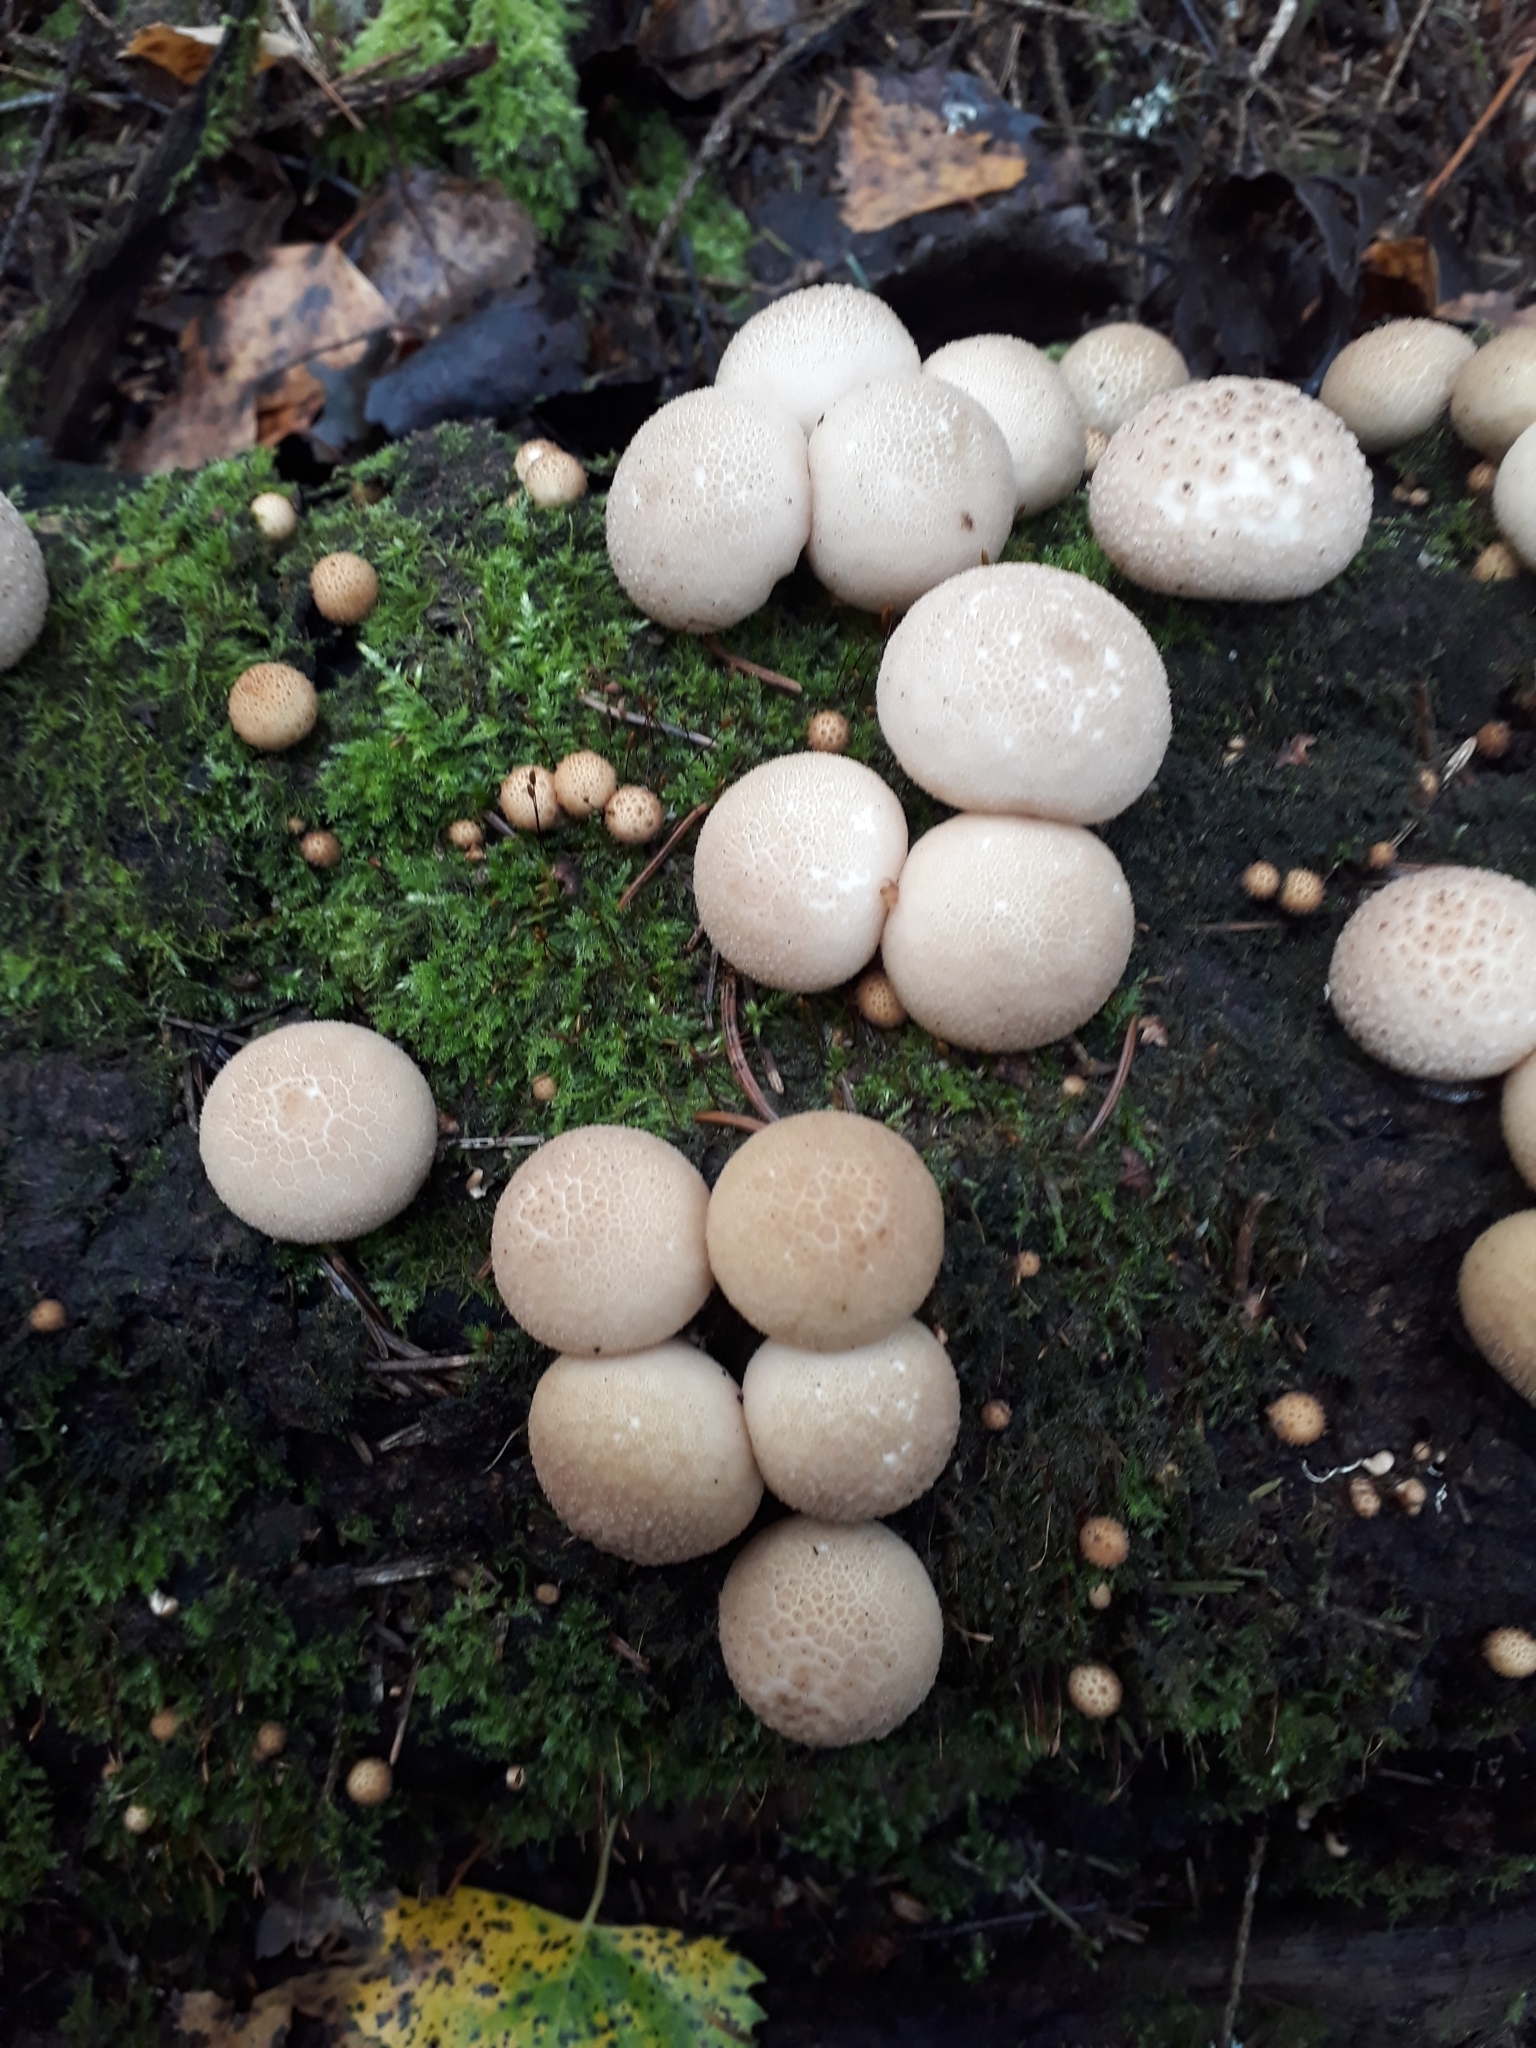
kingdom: Fungi
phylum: Basidiomycota
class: Agaricomycetes
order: Agaricales
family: Lycoperdaceae
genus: Apioperdon
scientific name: Apioperdon pyriforme
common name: Pear-shaped puffball
